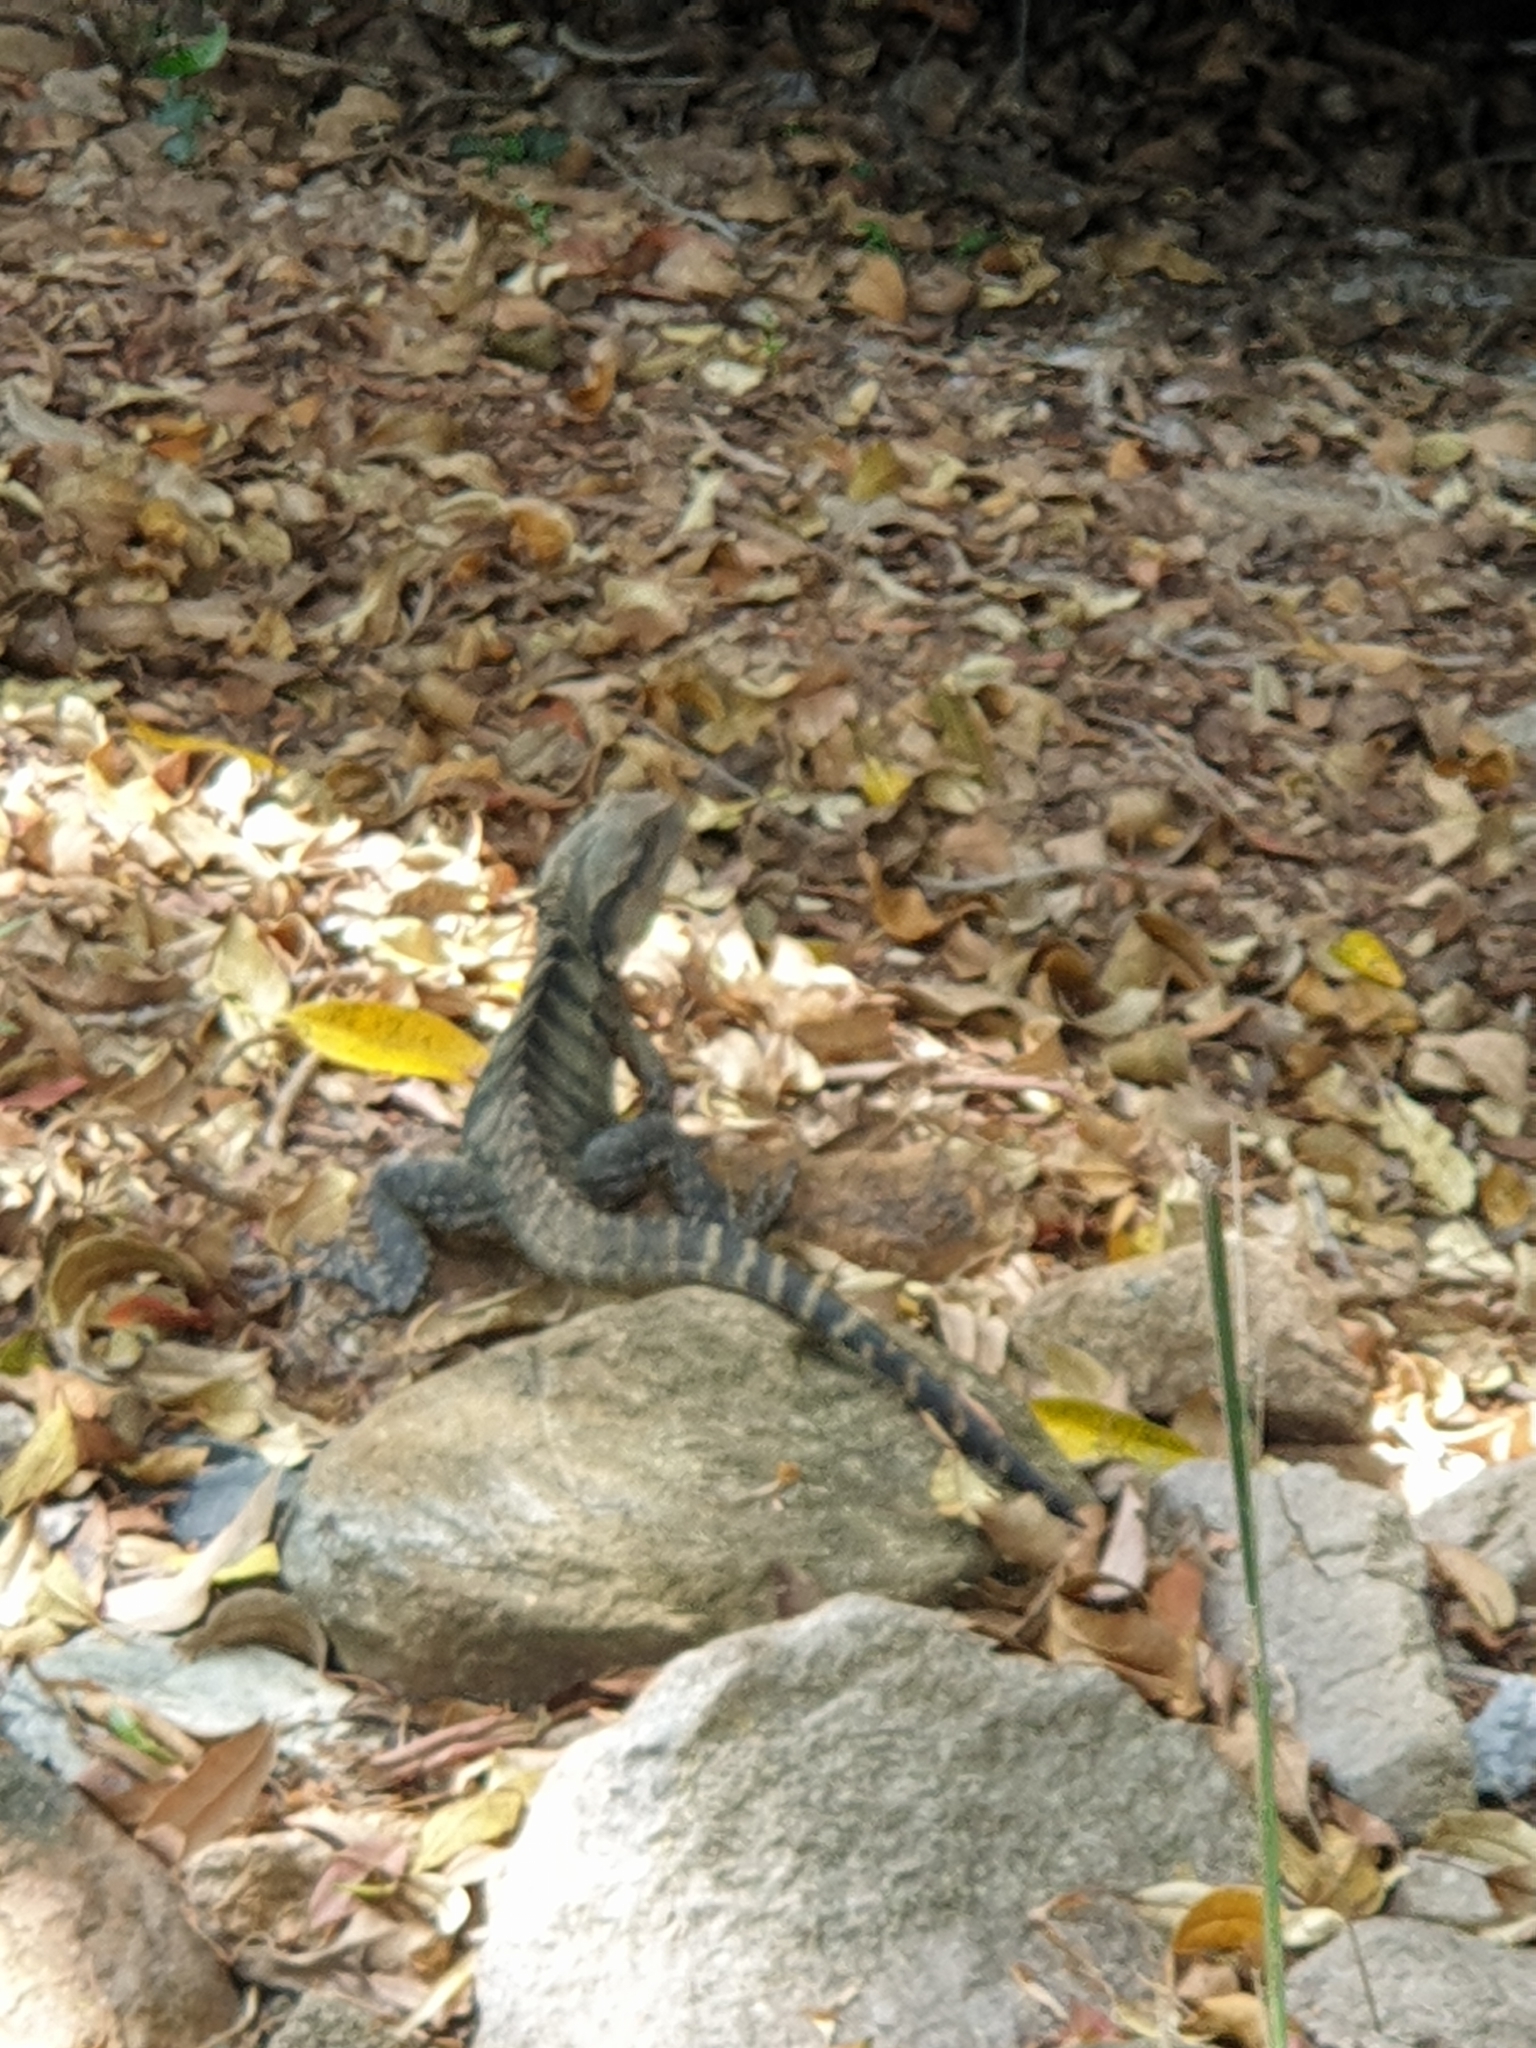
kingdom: Animalia
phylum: Chordata
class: Squamata
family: Agamidae
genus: Intellagama
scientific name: Intellagama lesueurii
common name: Eastern water dragon
